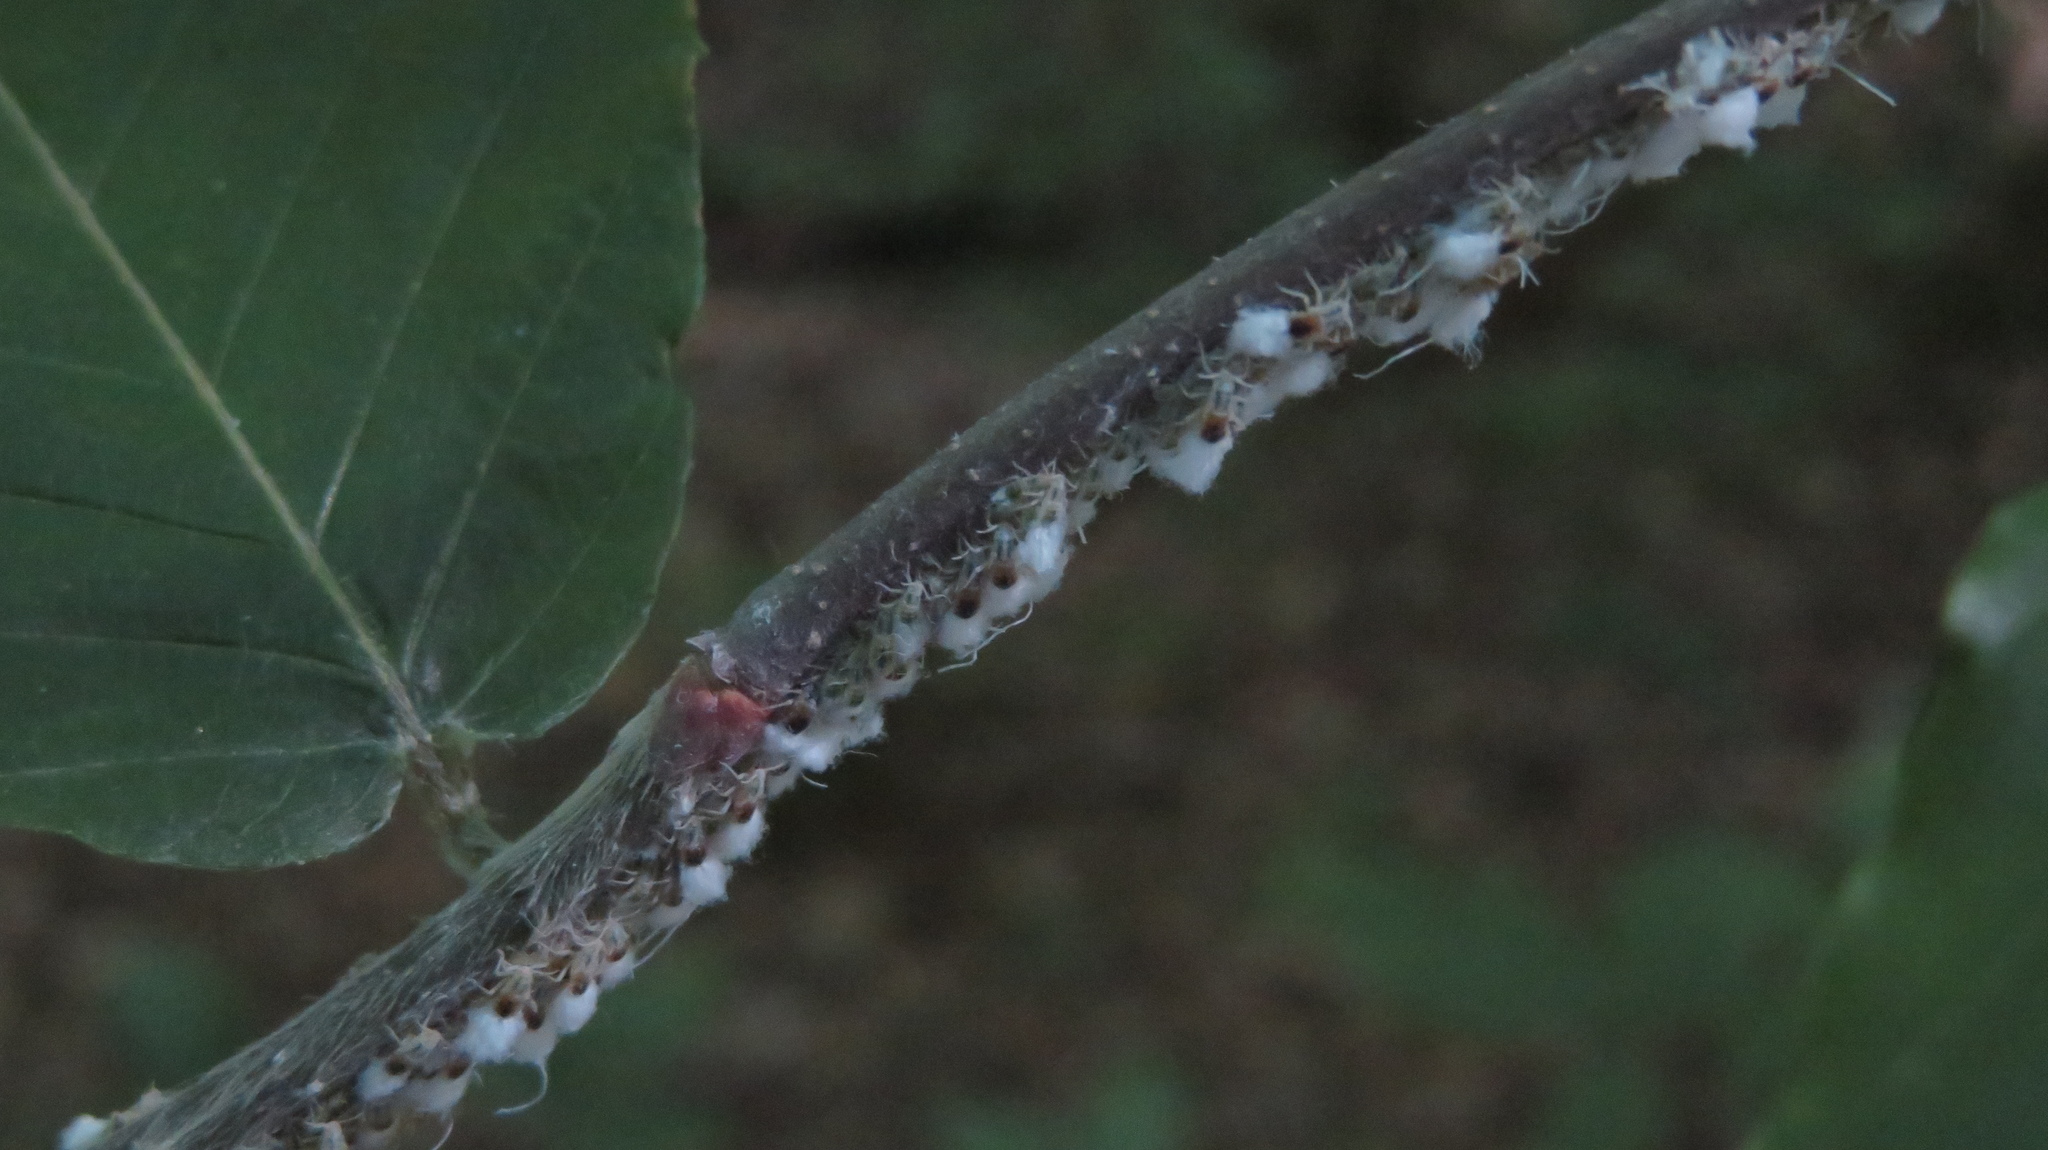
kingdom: Animalia
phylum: Arthropoda
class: Insecta
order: Hemiptera
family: Aphididae
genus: Grylloprociphilus
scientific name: Grylloprociphilus imbricator
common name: Beech blight aphid
